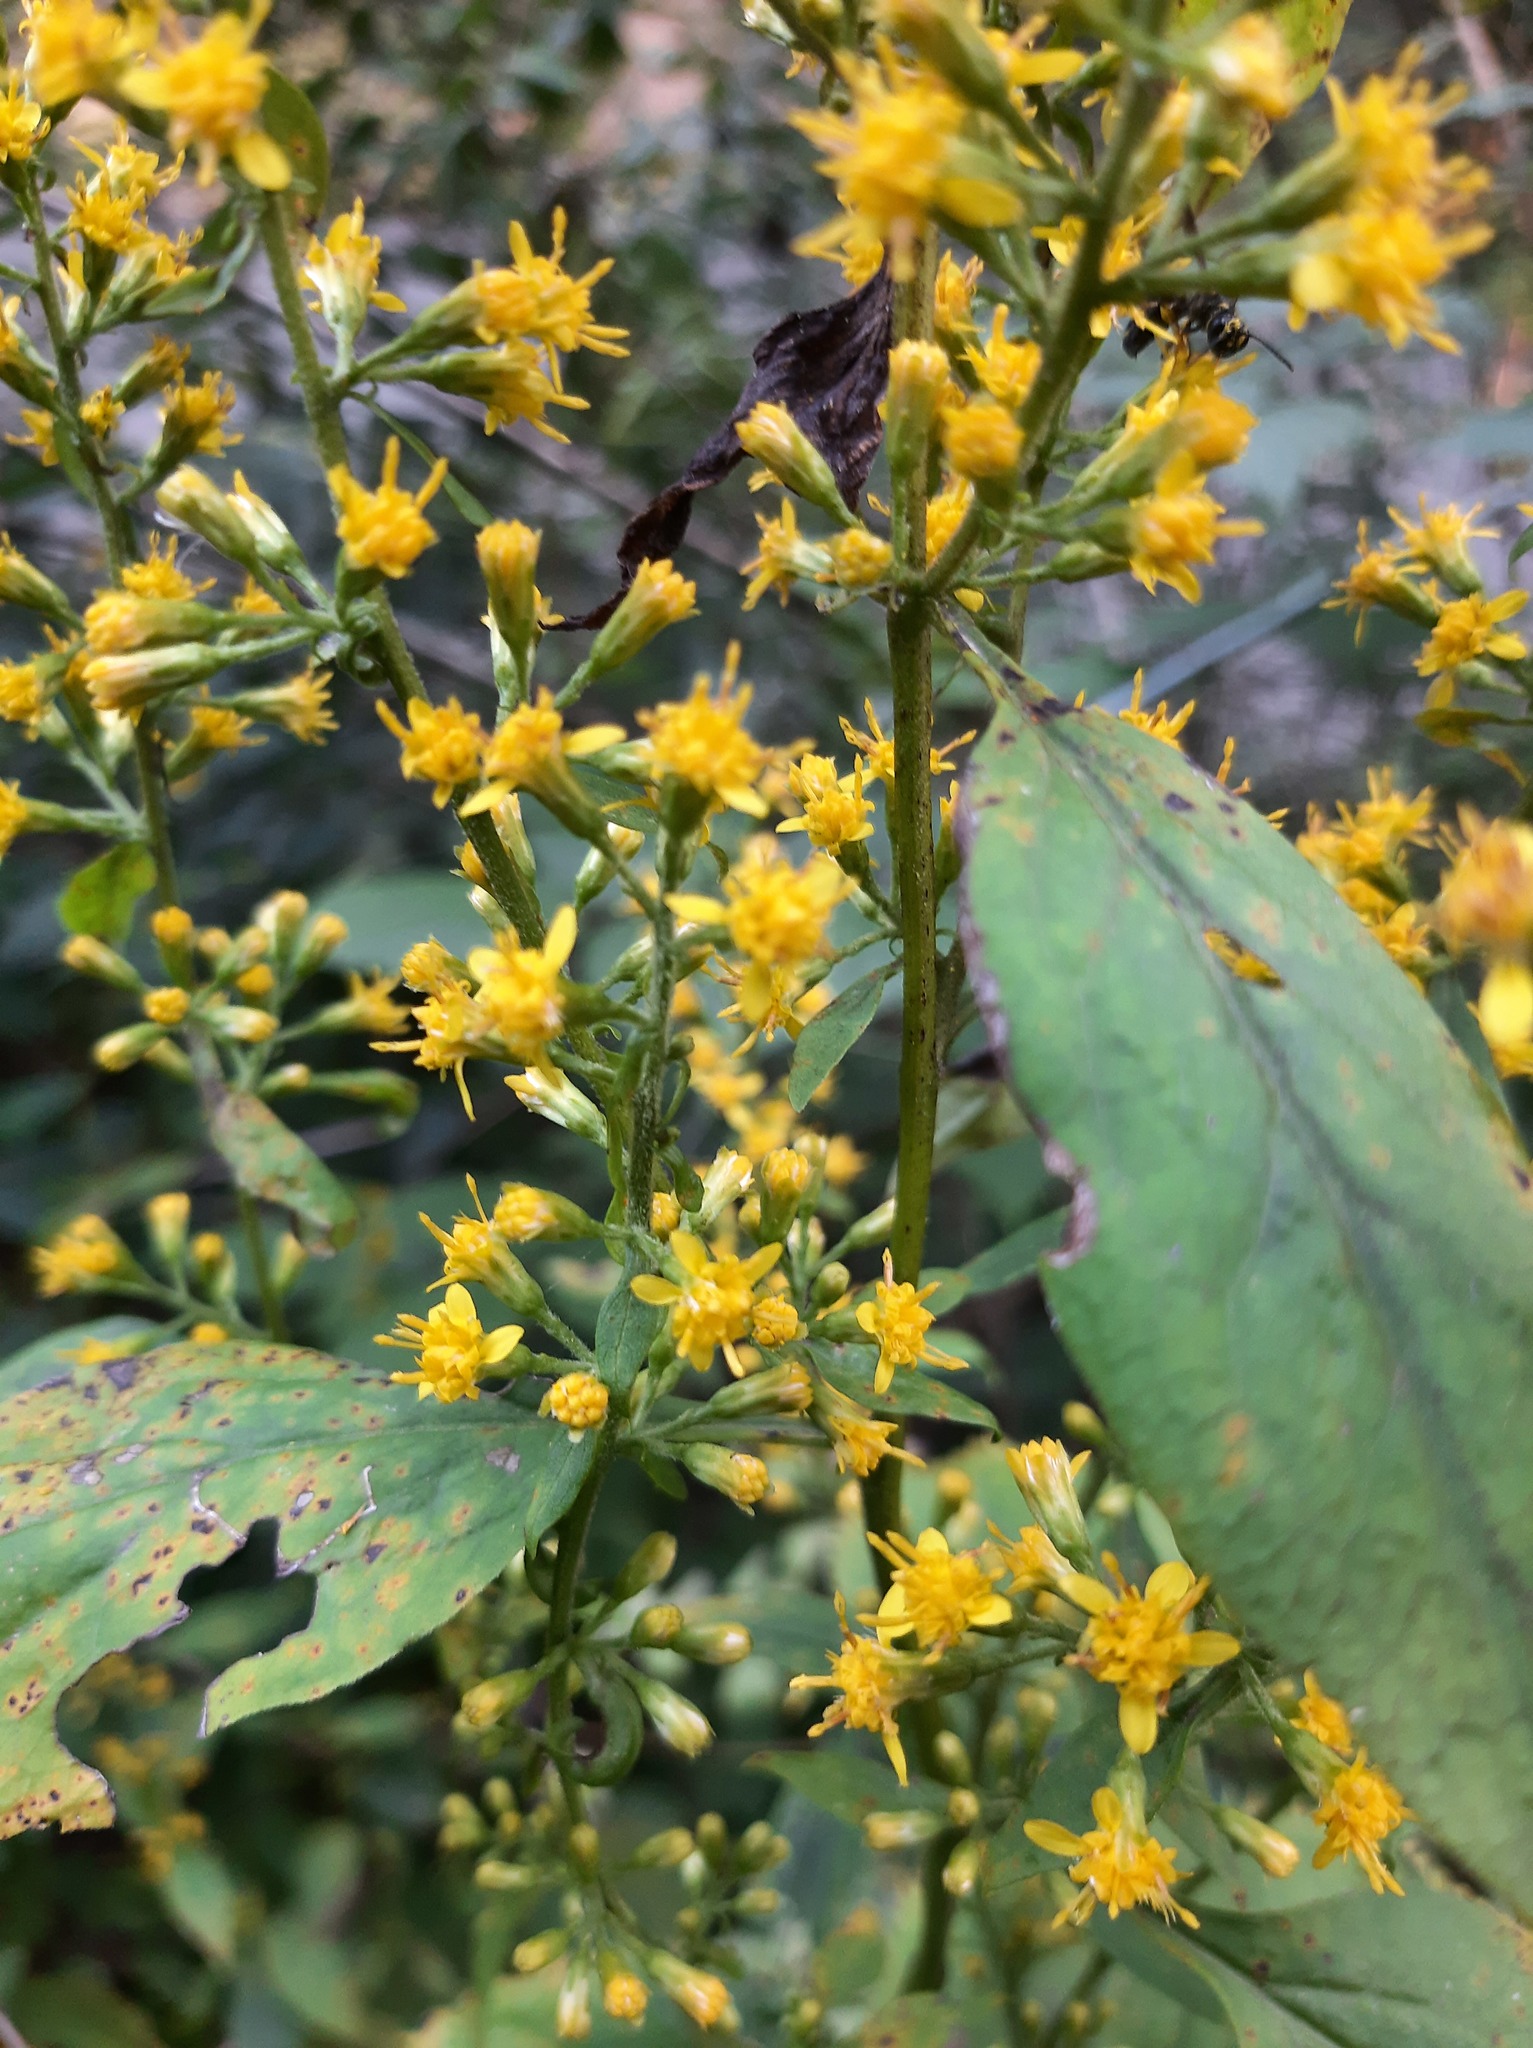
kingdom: Plantae
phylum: Tracheophyta
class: Magnoliopsida
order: Asterales
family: Asteraceae
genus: Solidago
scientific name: Solidago flexicaulis
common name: Zig-zag goldenrod
